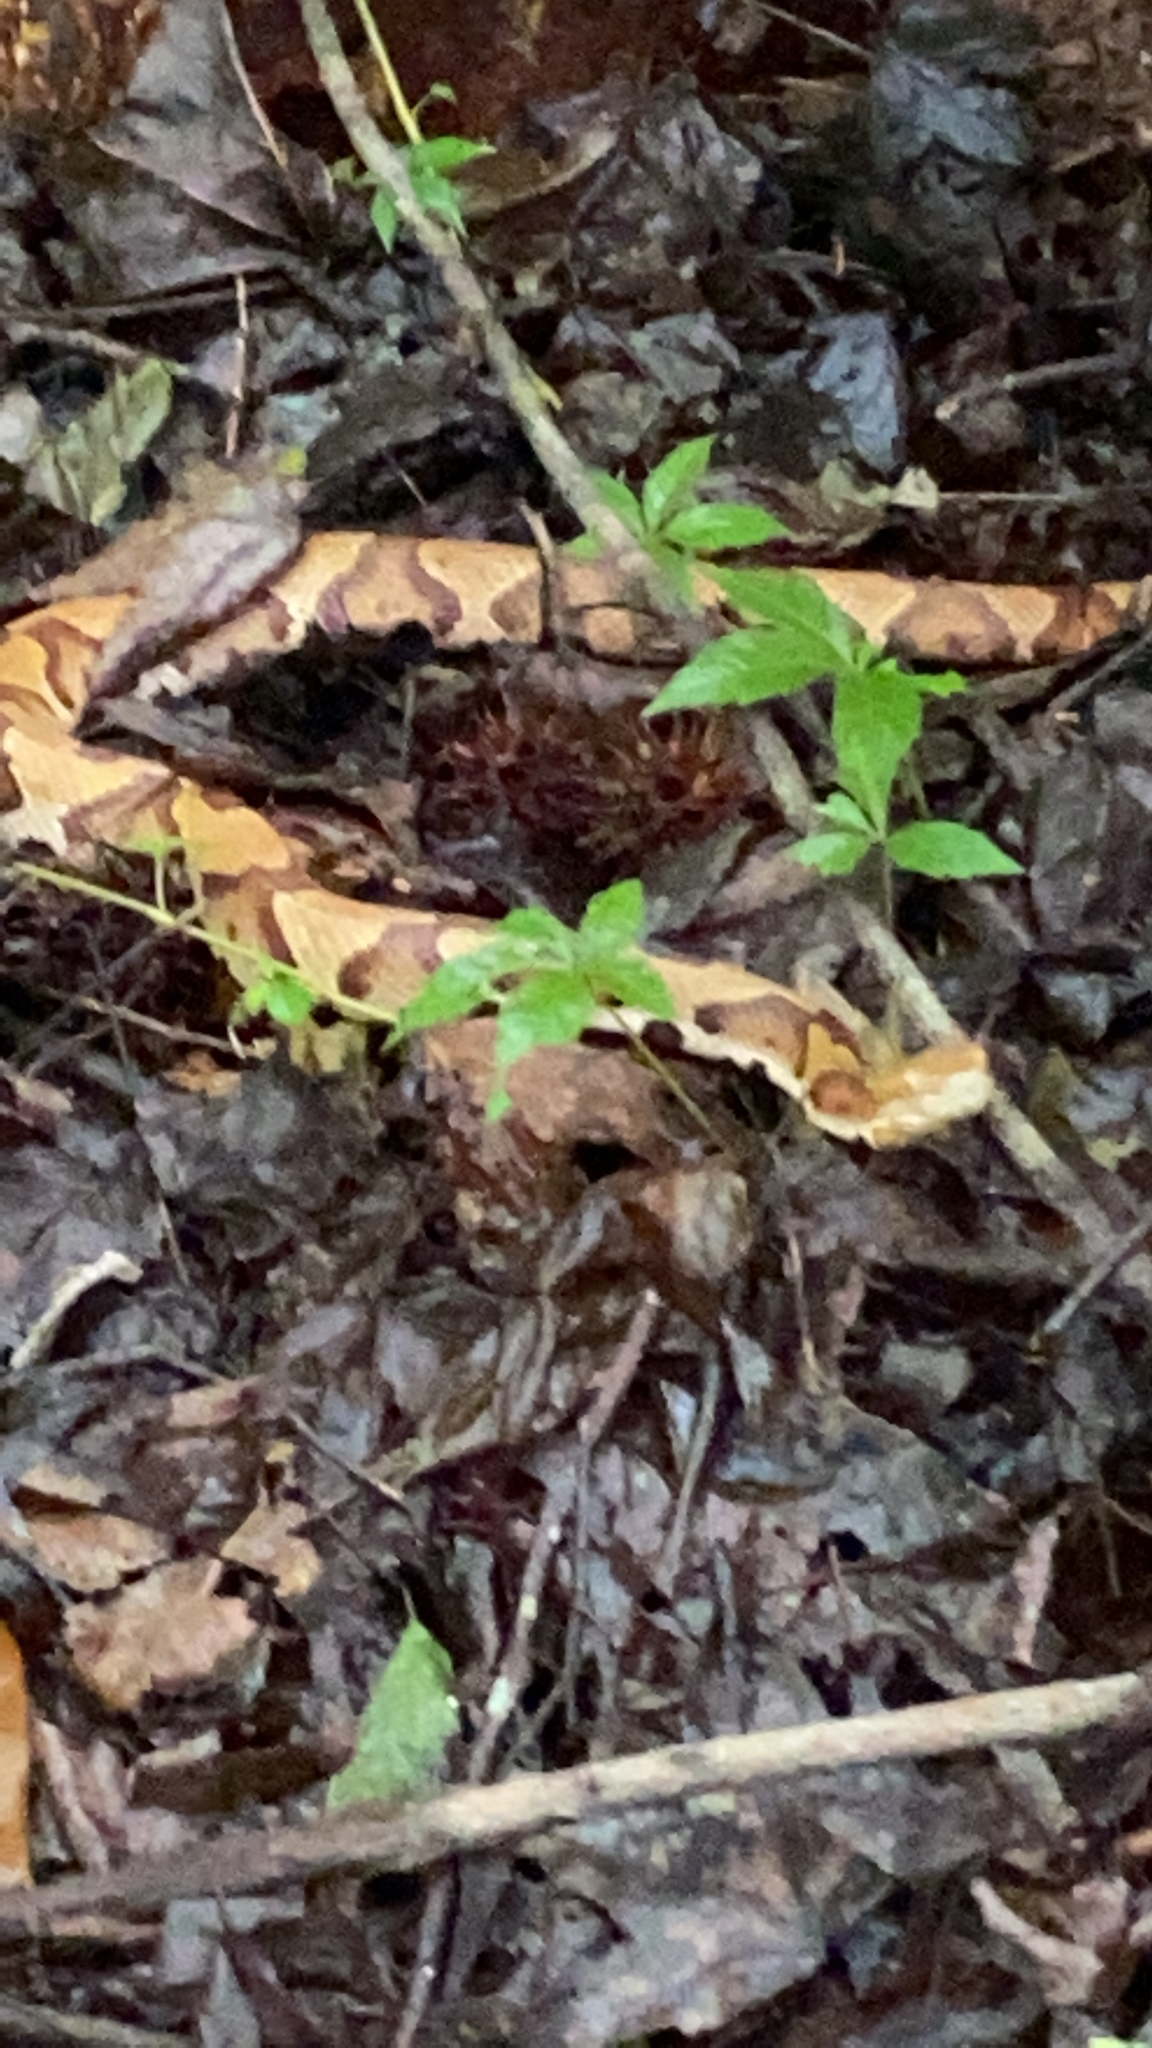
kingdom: Animalia
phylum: Chordata
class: Squamata
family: Viperidae
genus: Agkistrodon
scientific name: Agkistrodon contortrix
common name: Northern copperhead
